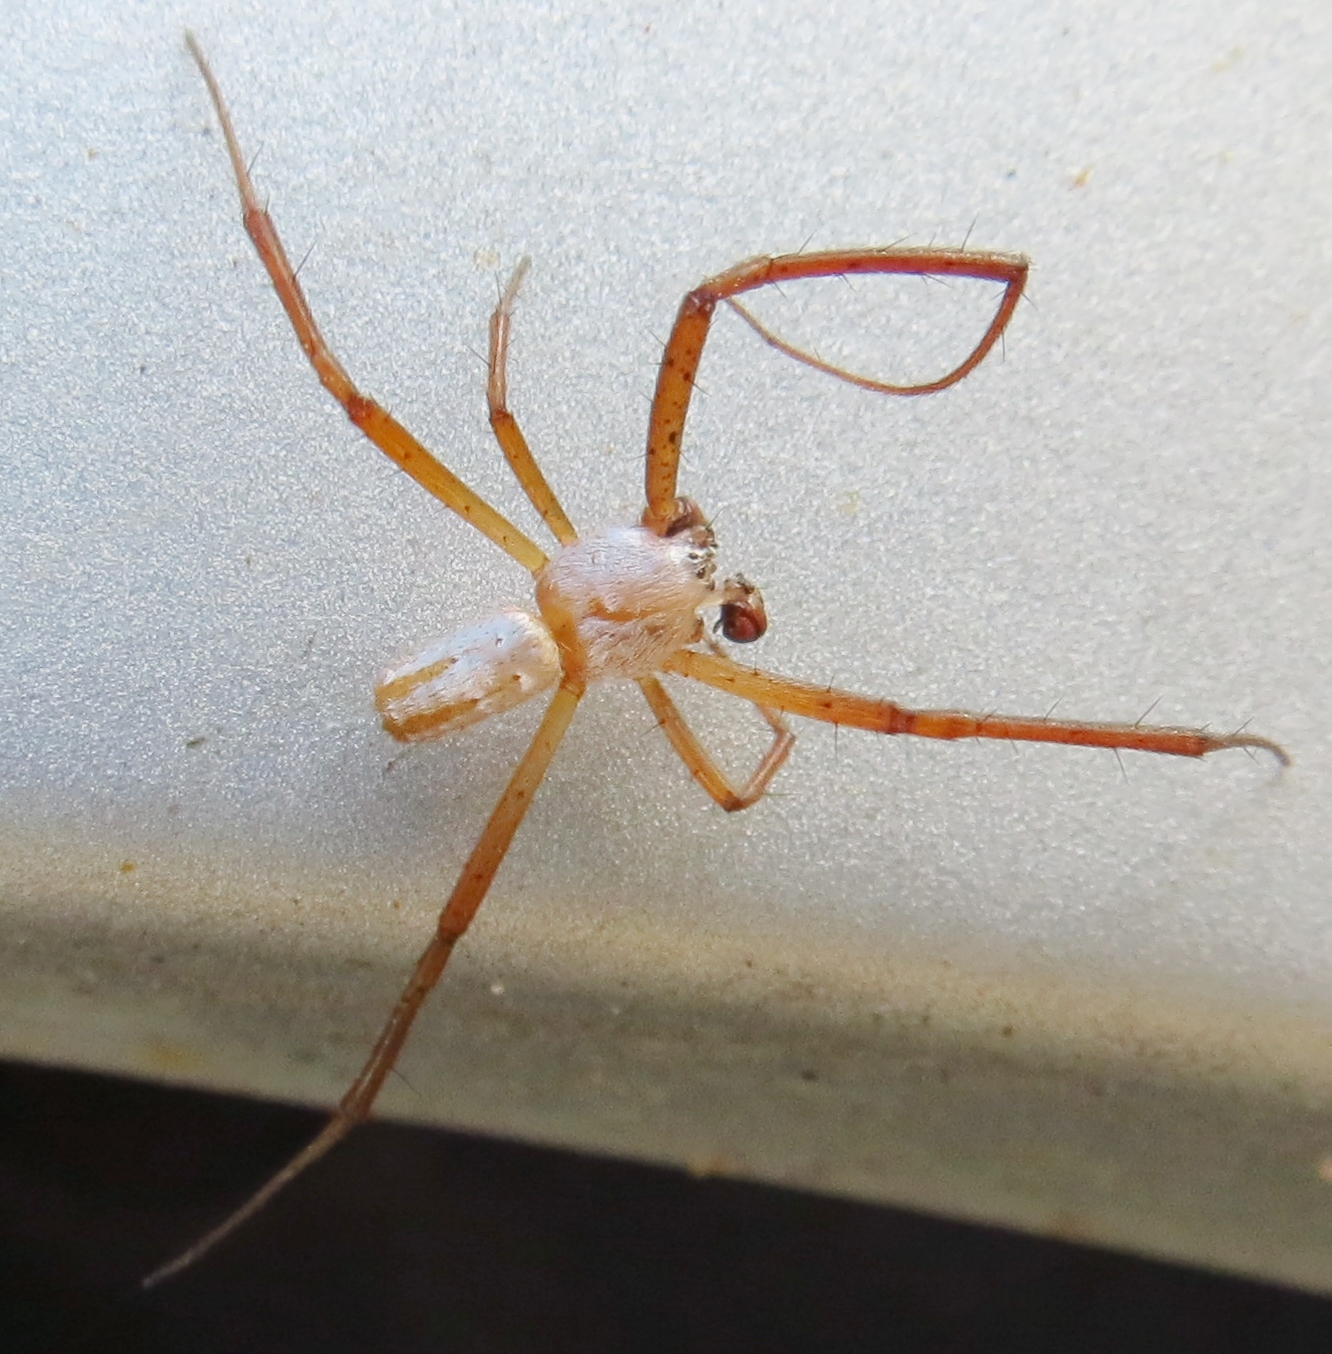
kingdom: Animalia
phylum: Arthropoda
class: Arachnida
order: Araneae
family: Araneidae
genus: Argiope
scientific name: Argiope trifasciata
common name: Banded garden spider
